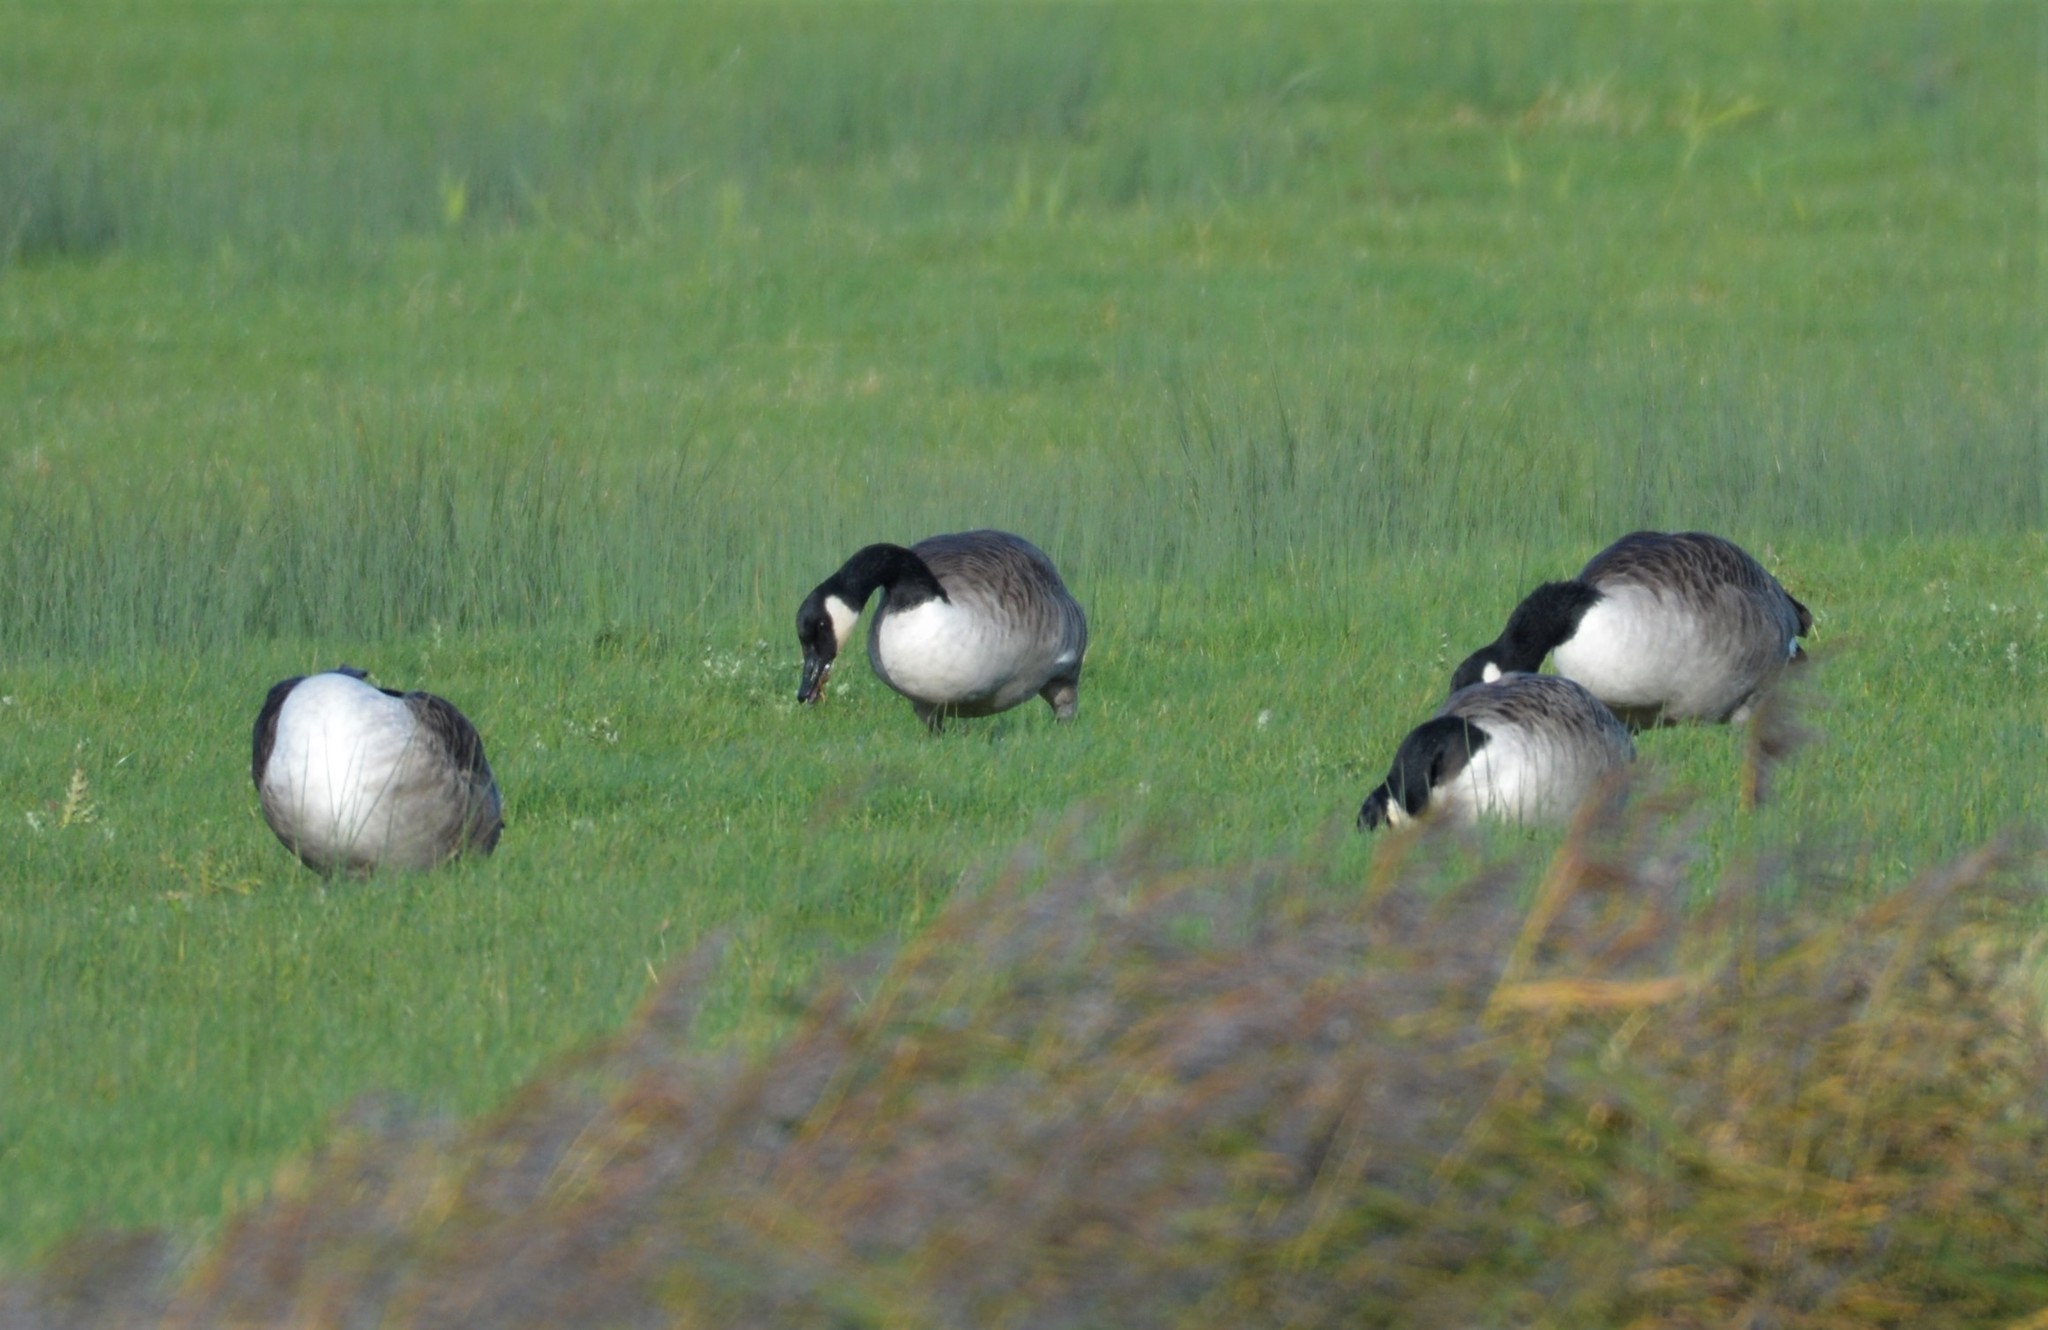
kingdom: Animalia
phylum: Chordata
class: Aves
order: Anseriformes
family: Anatidae
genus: Branta
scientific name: Branta canadensis
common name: Canada goose
